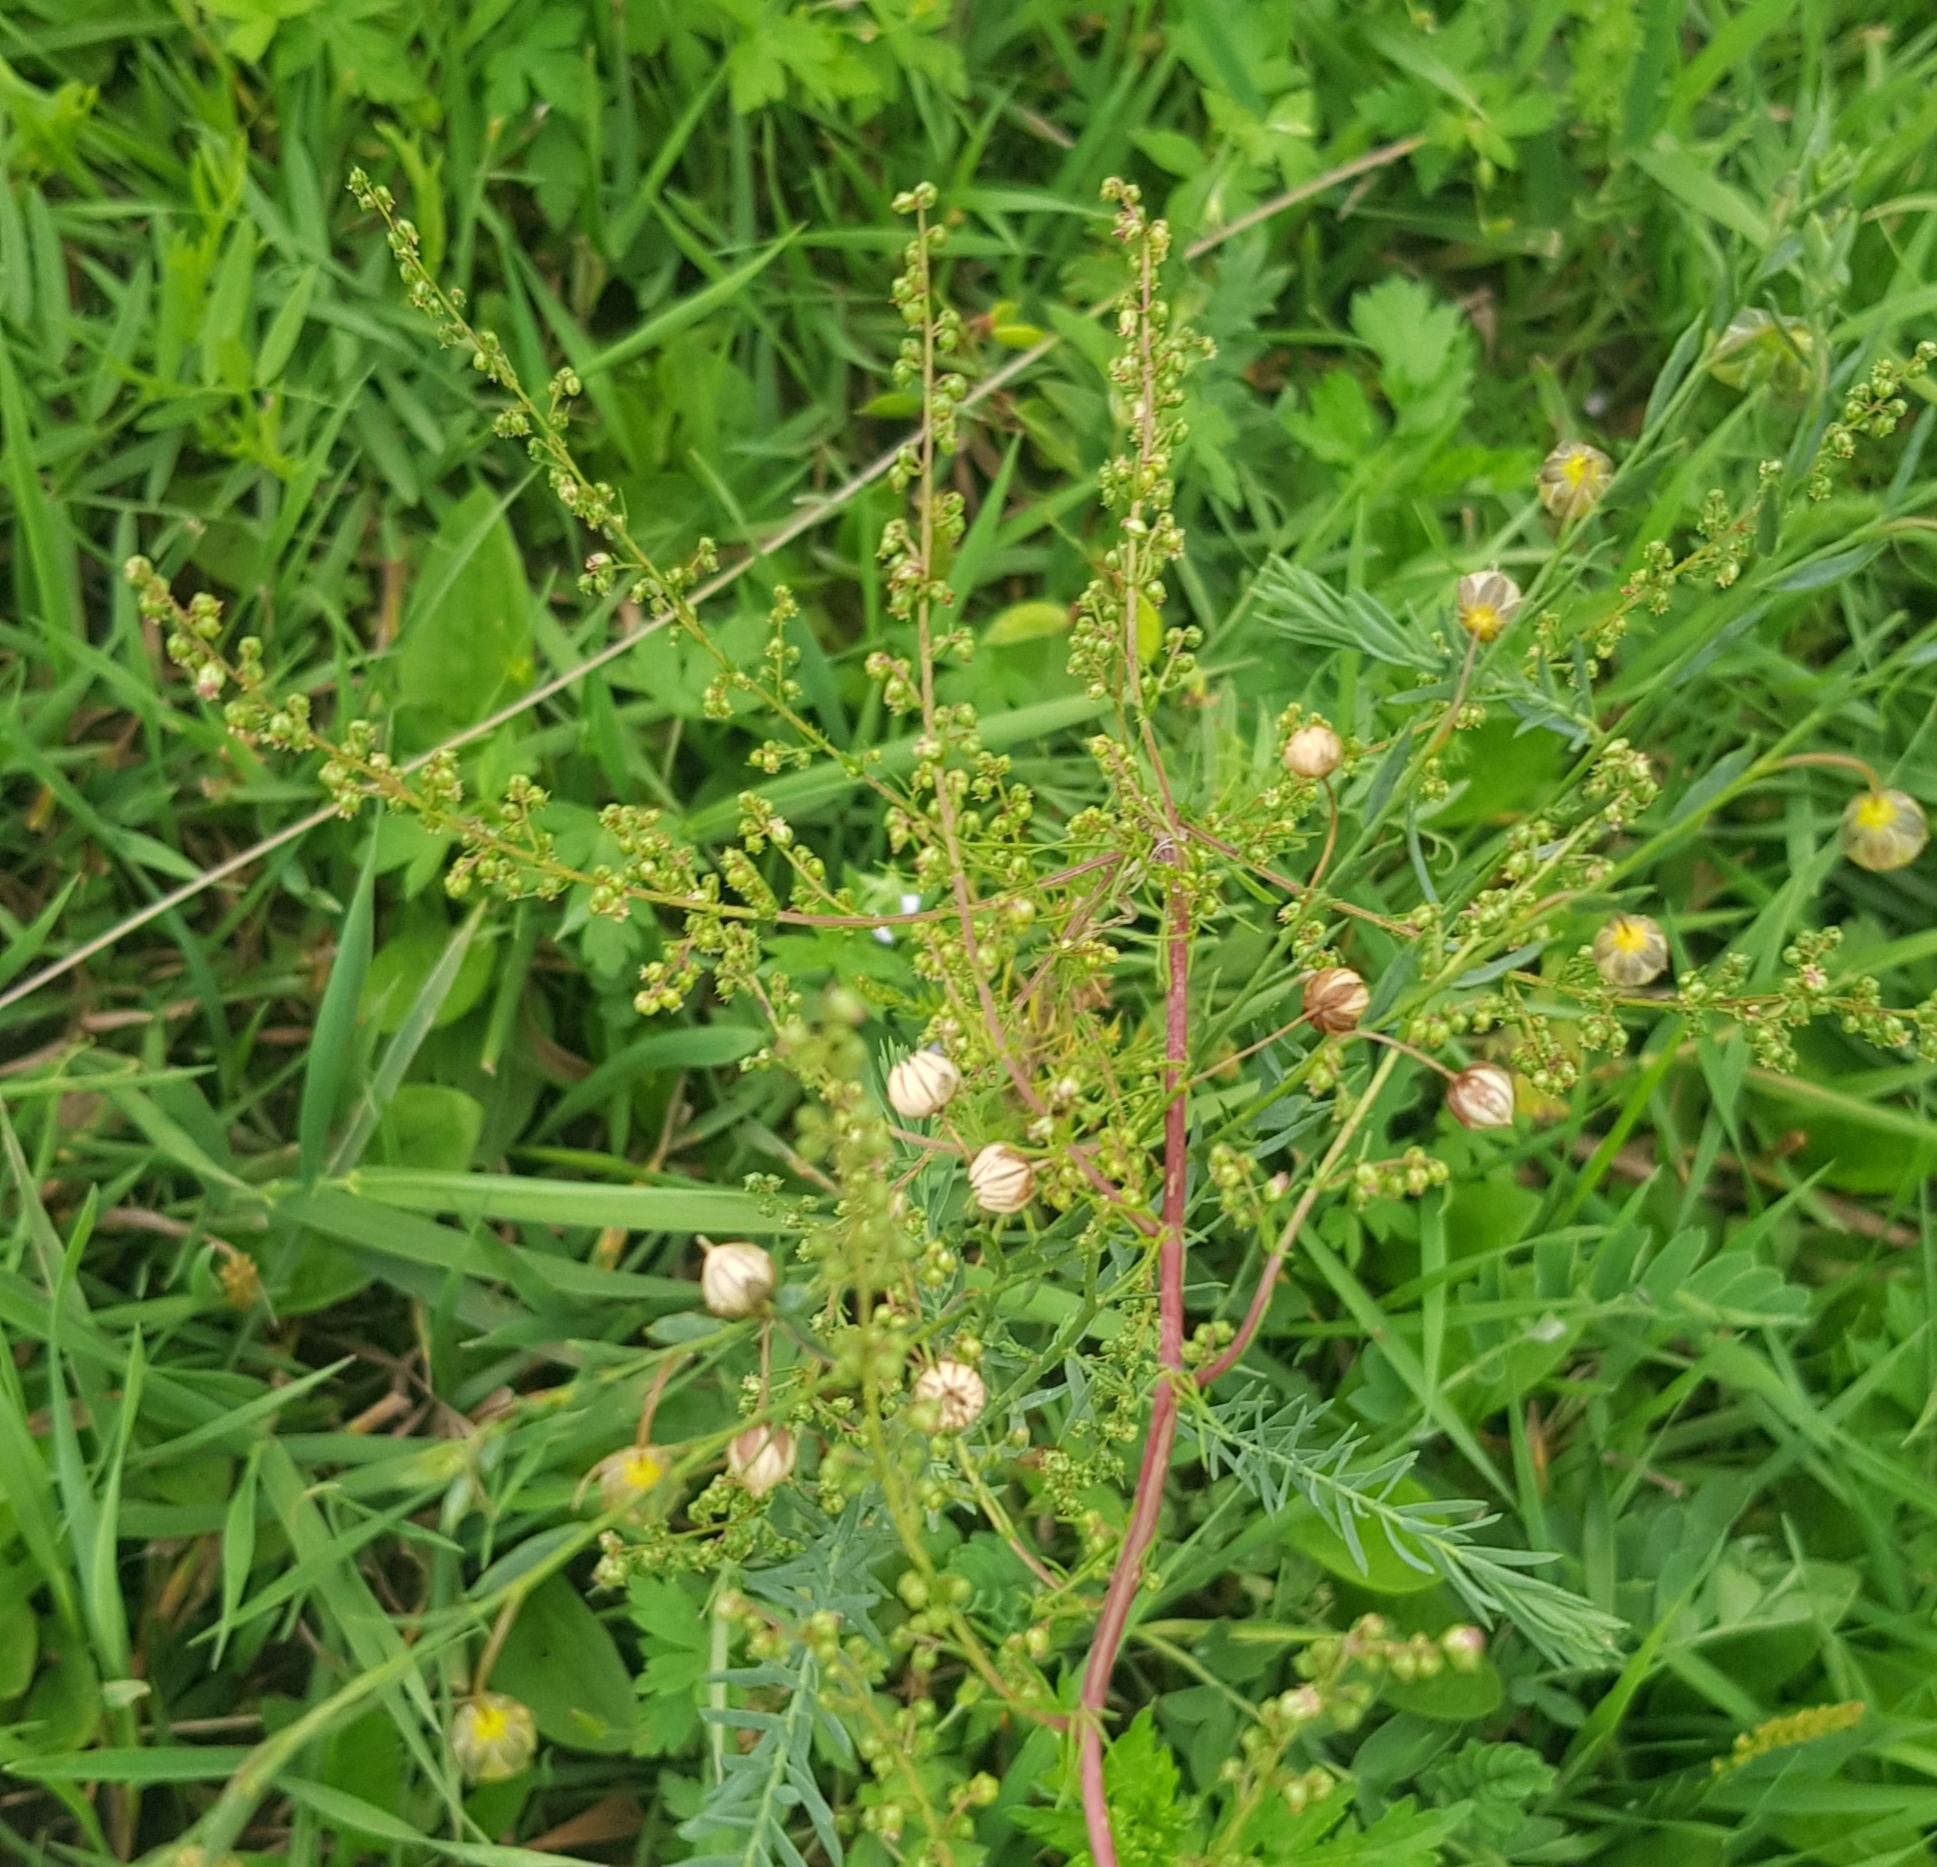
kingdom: Plantae
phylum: Tracheophyta
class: Magnoliopsida
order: Asterales
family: Asteraceae
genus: Artemisia
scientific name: Artemisia scoparia
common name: Redstem wormwood
